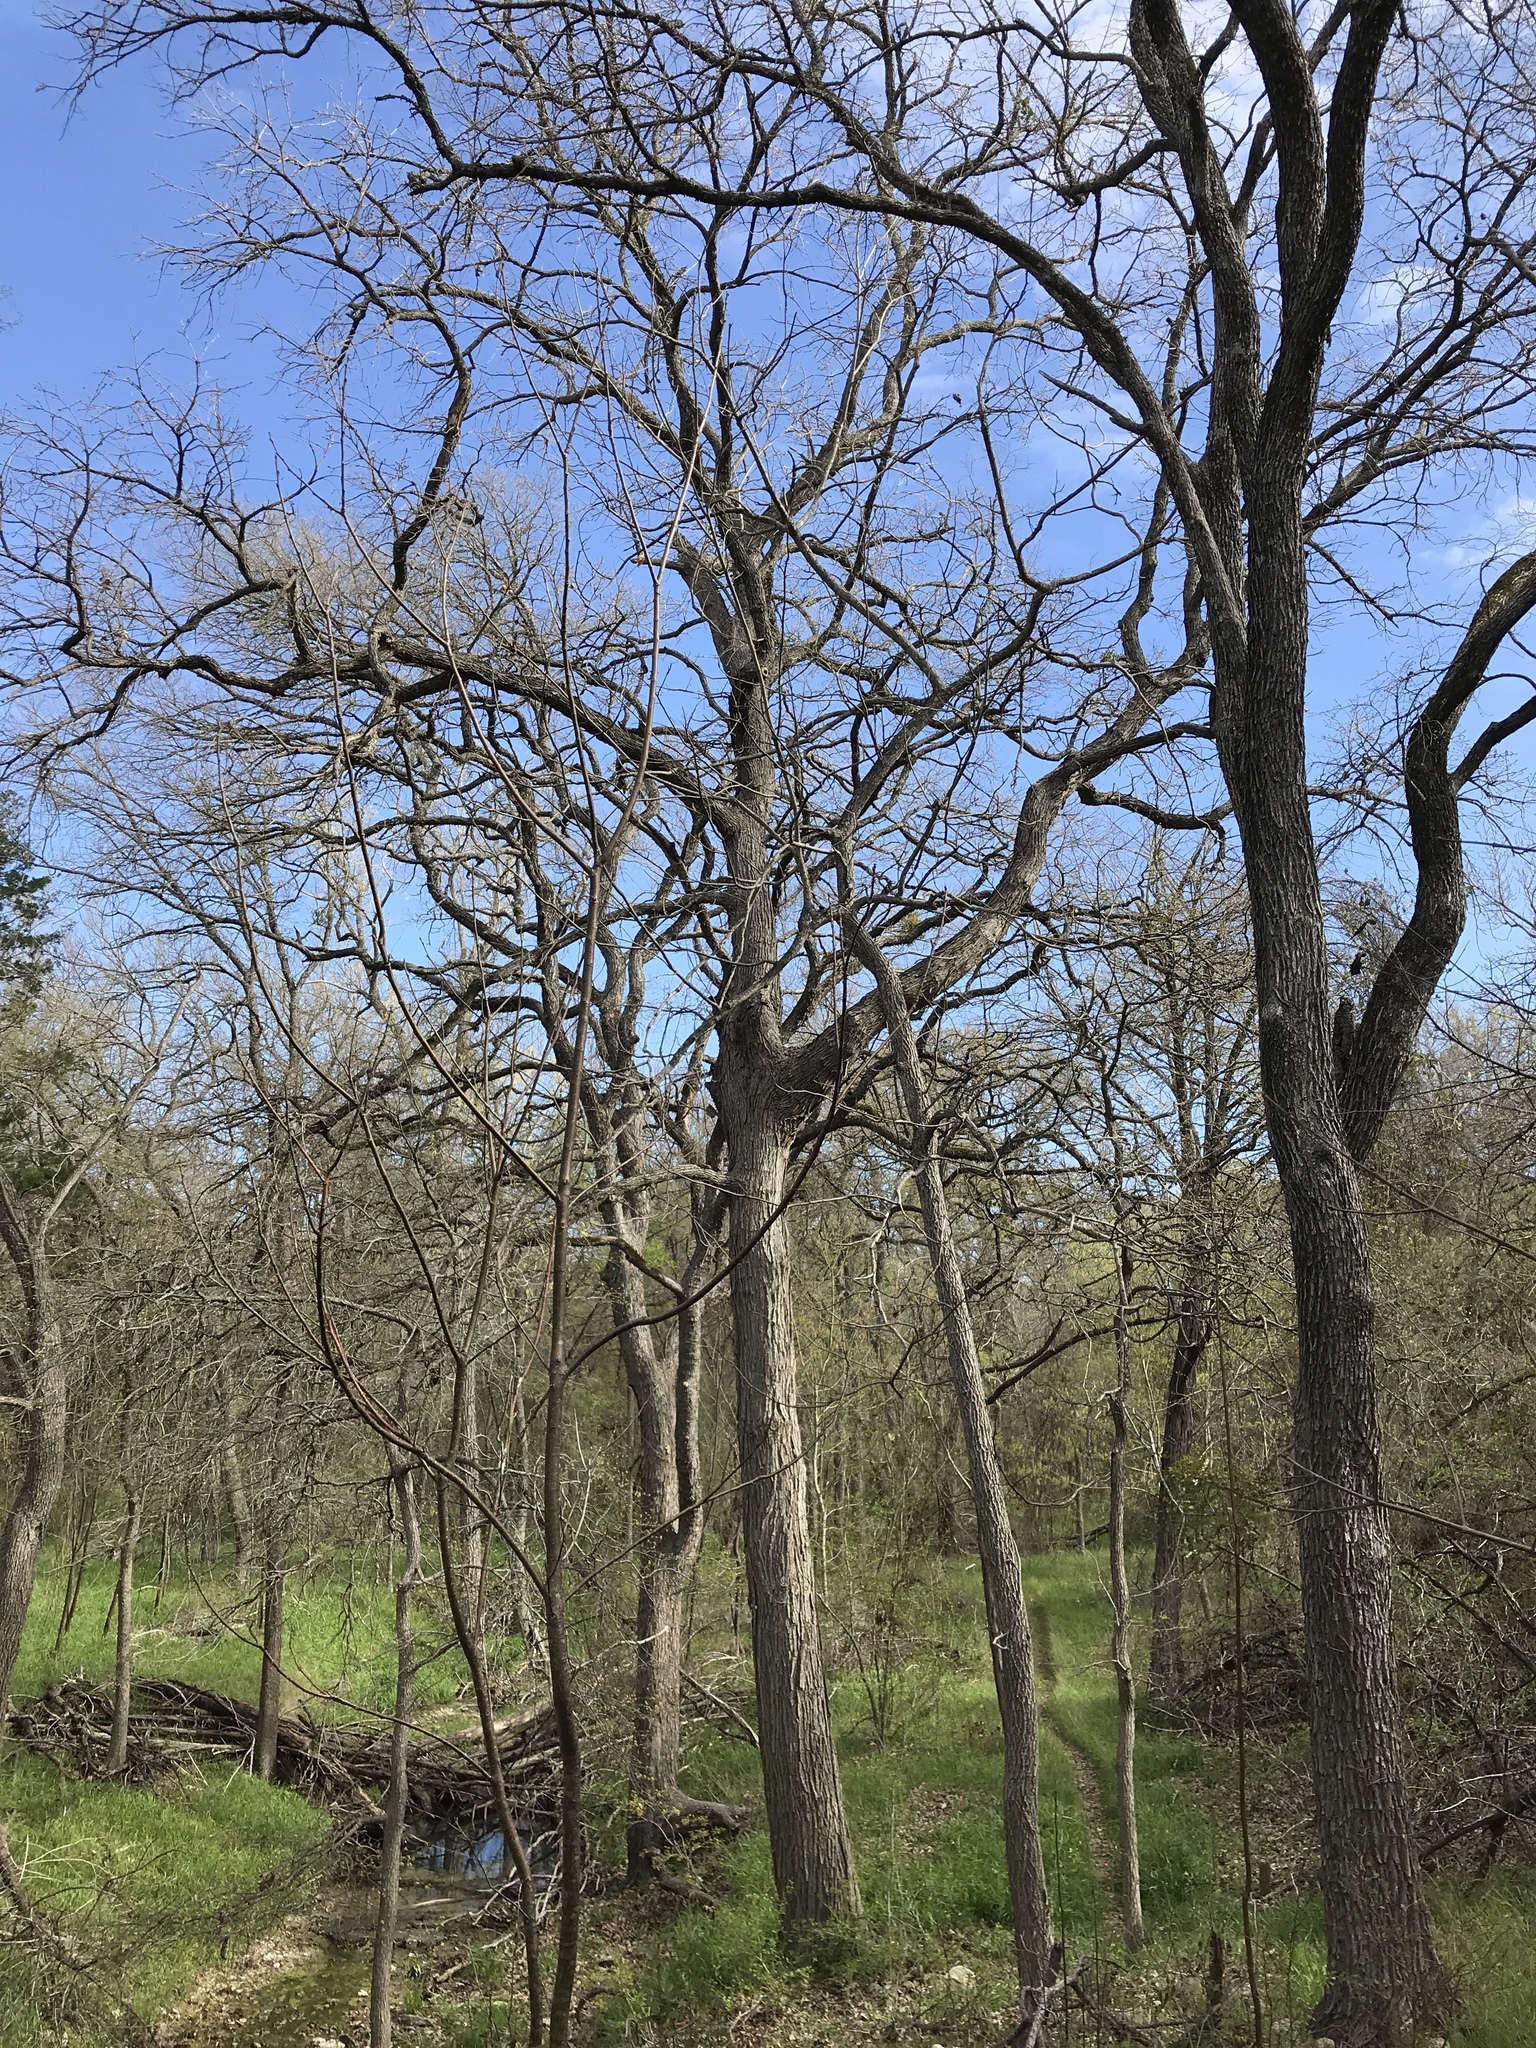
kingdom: Plantae
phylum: Tracheophyta
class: Magnoliopsida
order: Fagales
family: Fagaceae
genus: Quercus
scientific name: Quercus macrocarpa
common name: Bur oak
